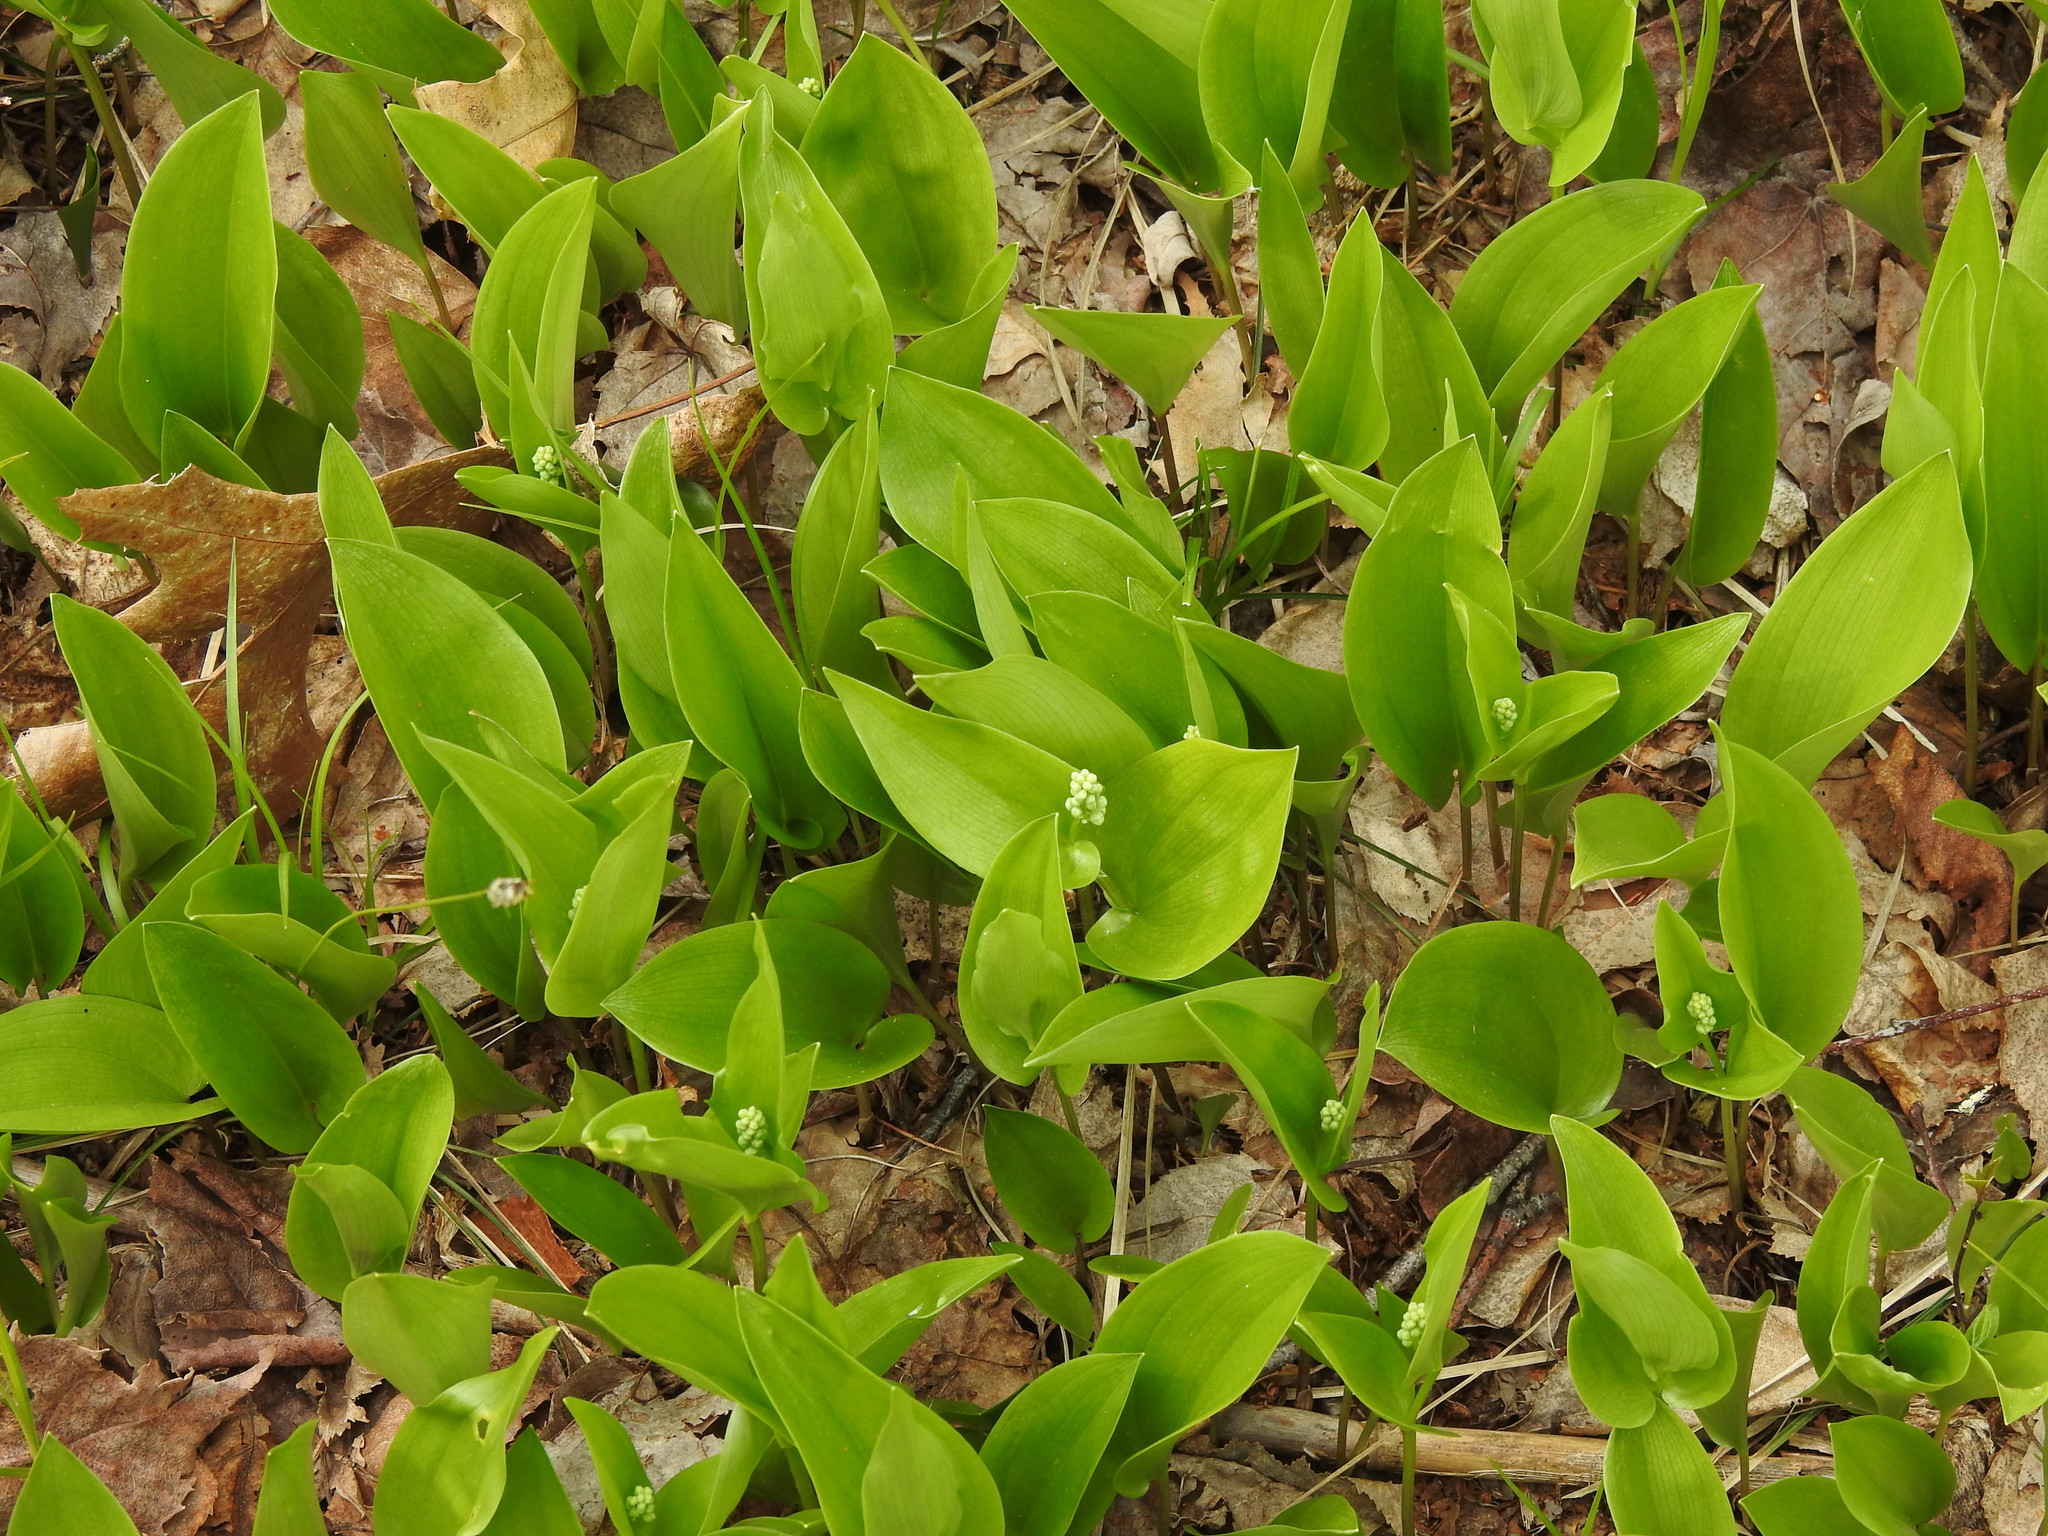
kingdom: Plantae
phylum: Tracheophyta
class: Liliopsida
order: Asparagales
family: Asparagaceae
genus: Maianthemum
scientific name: Maianthemum canadense
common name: False lily-of-the-valley
